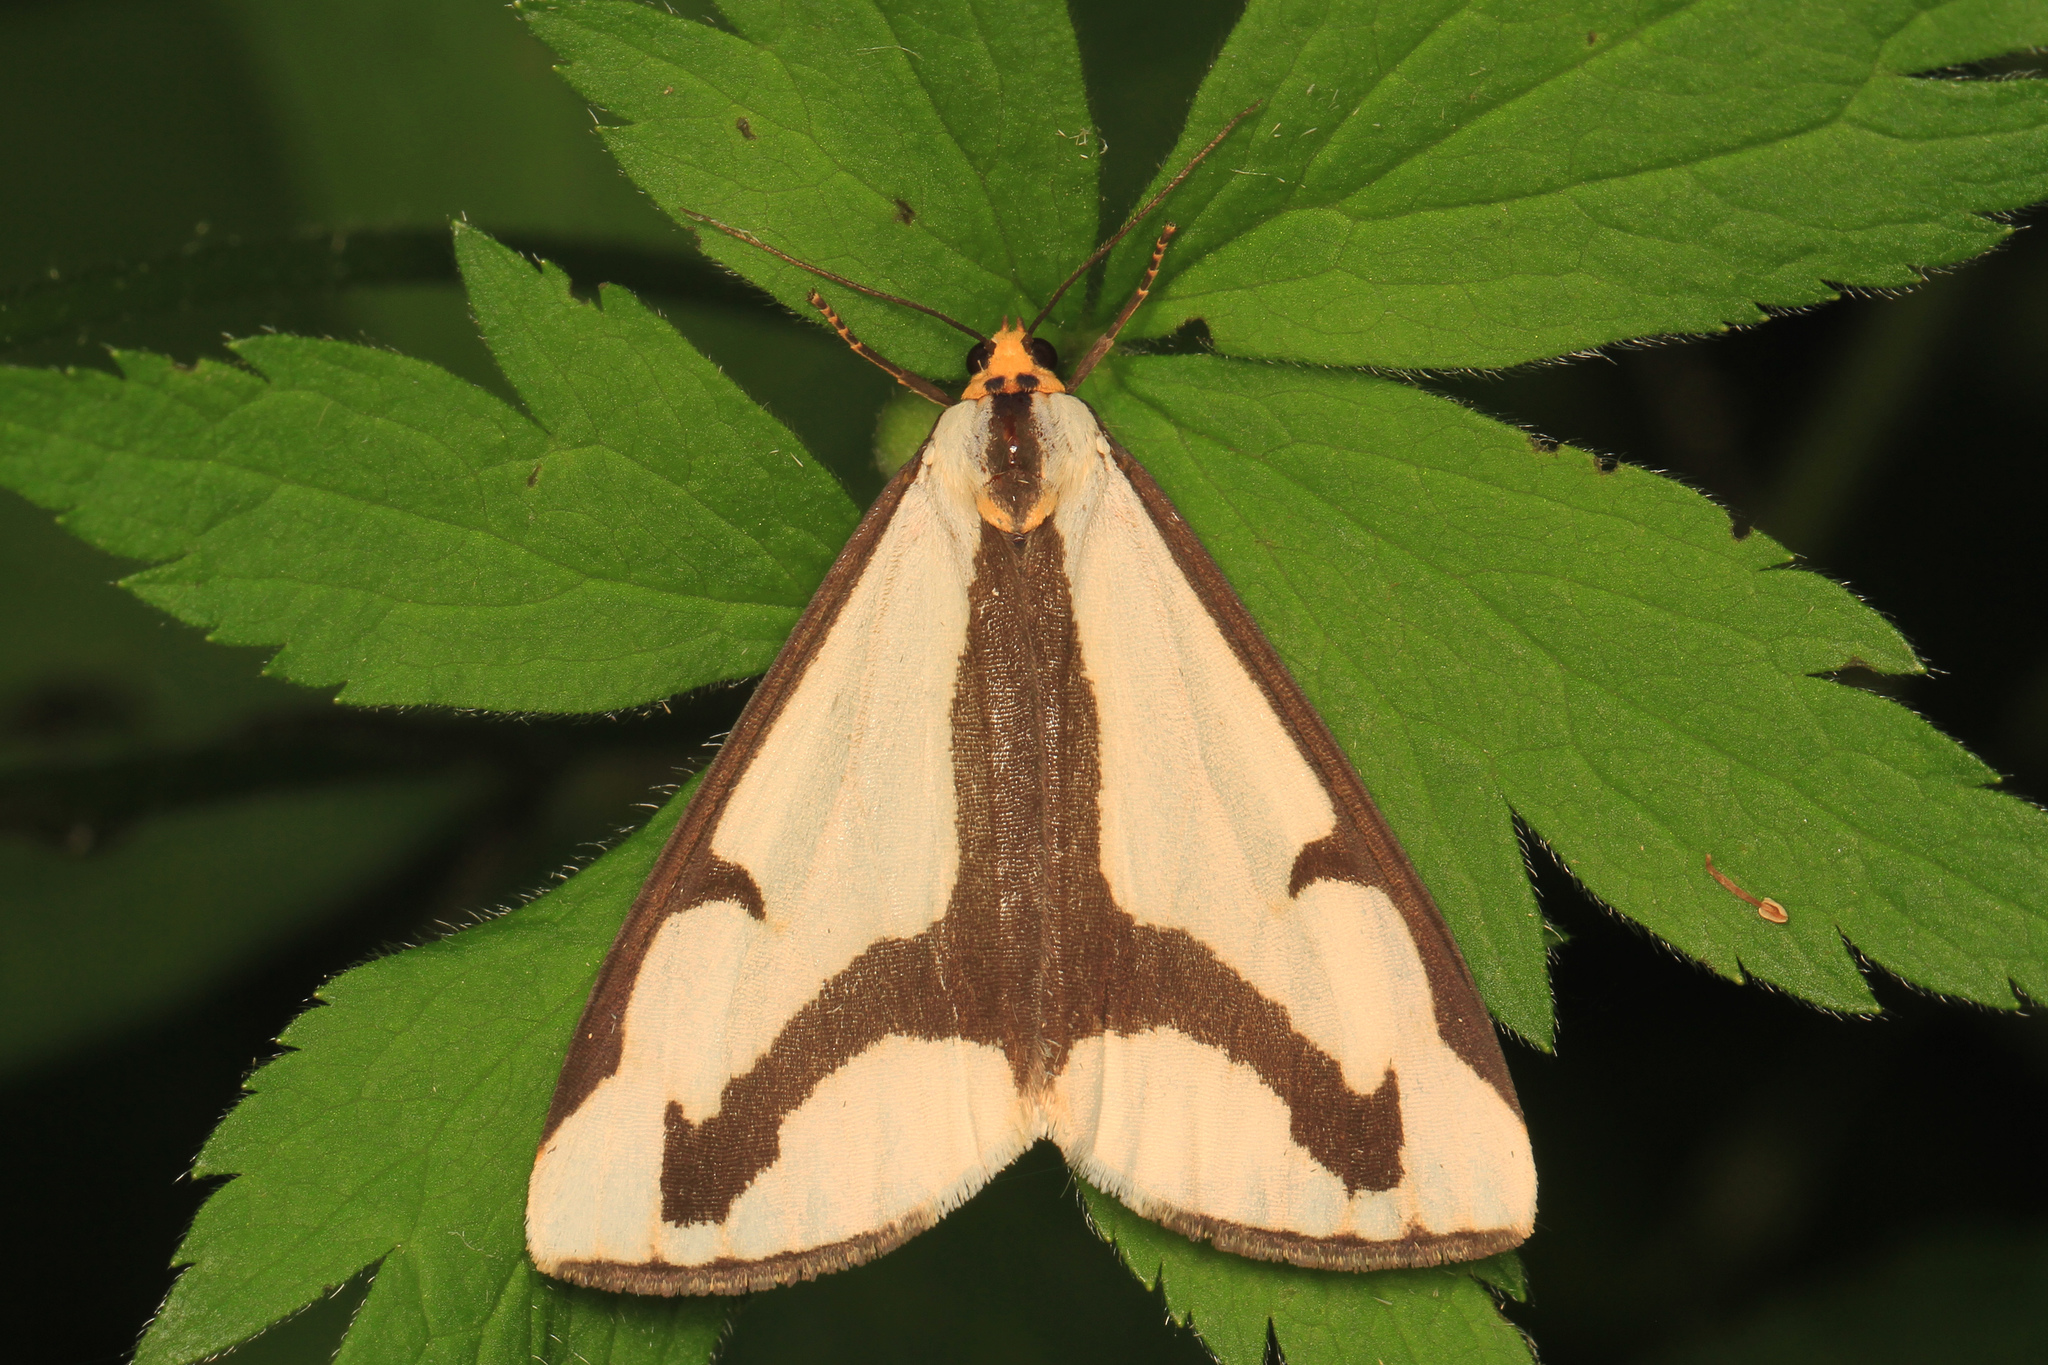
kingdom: Animalia
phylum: Arthropoda
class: Insecta
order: Lepidoptera
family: Erebidae
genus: Haploa
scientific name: Haploa lecontei
